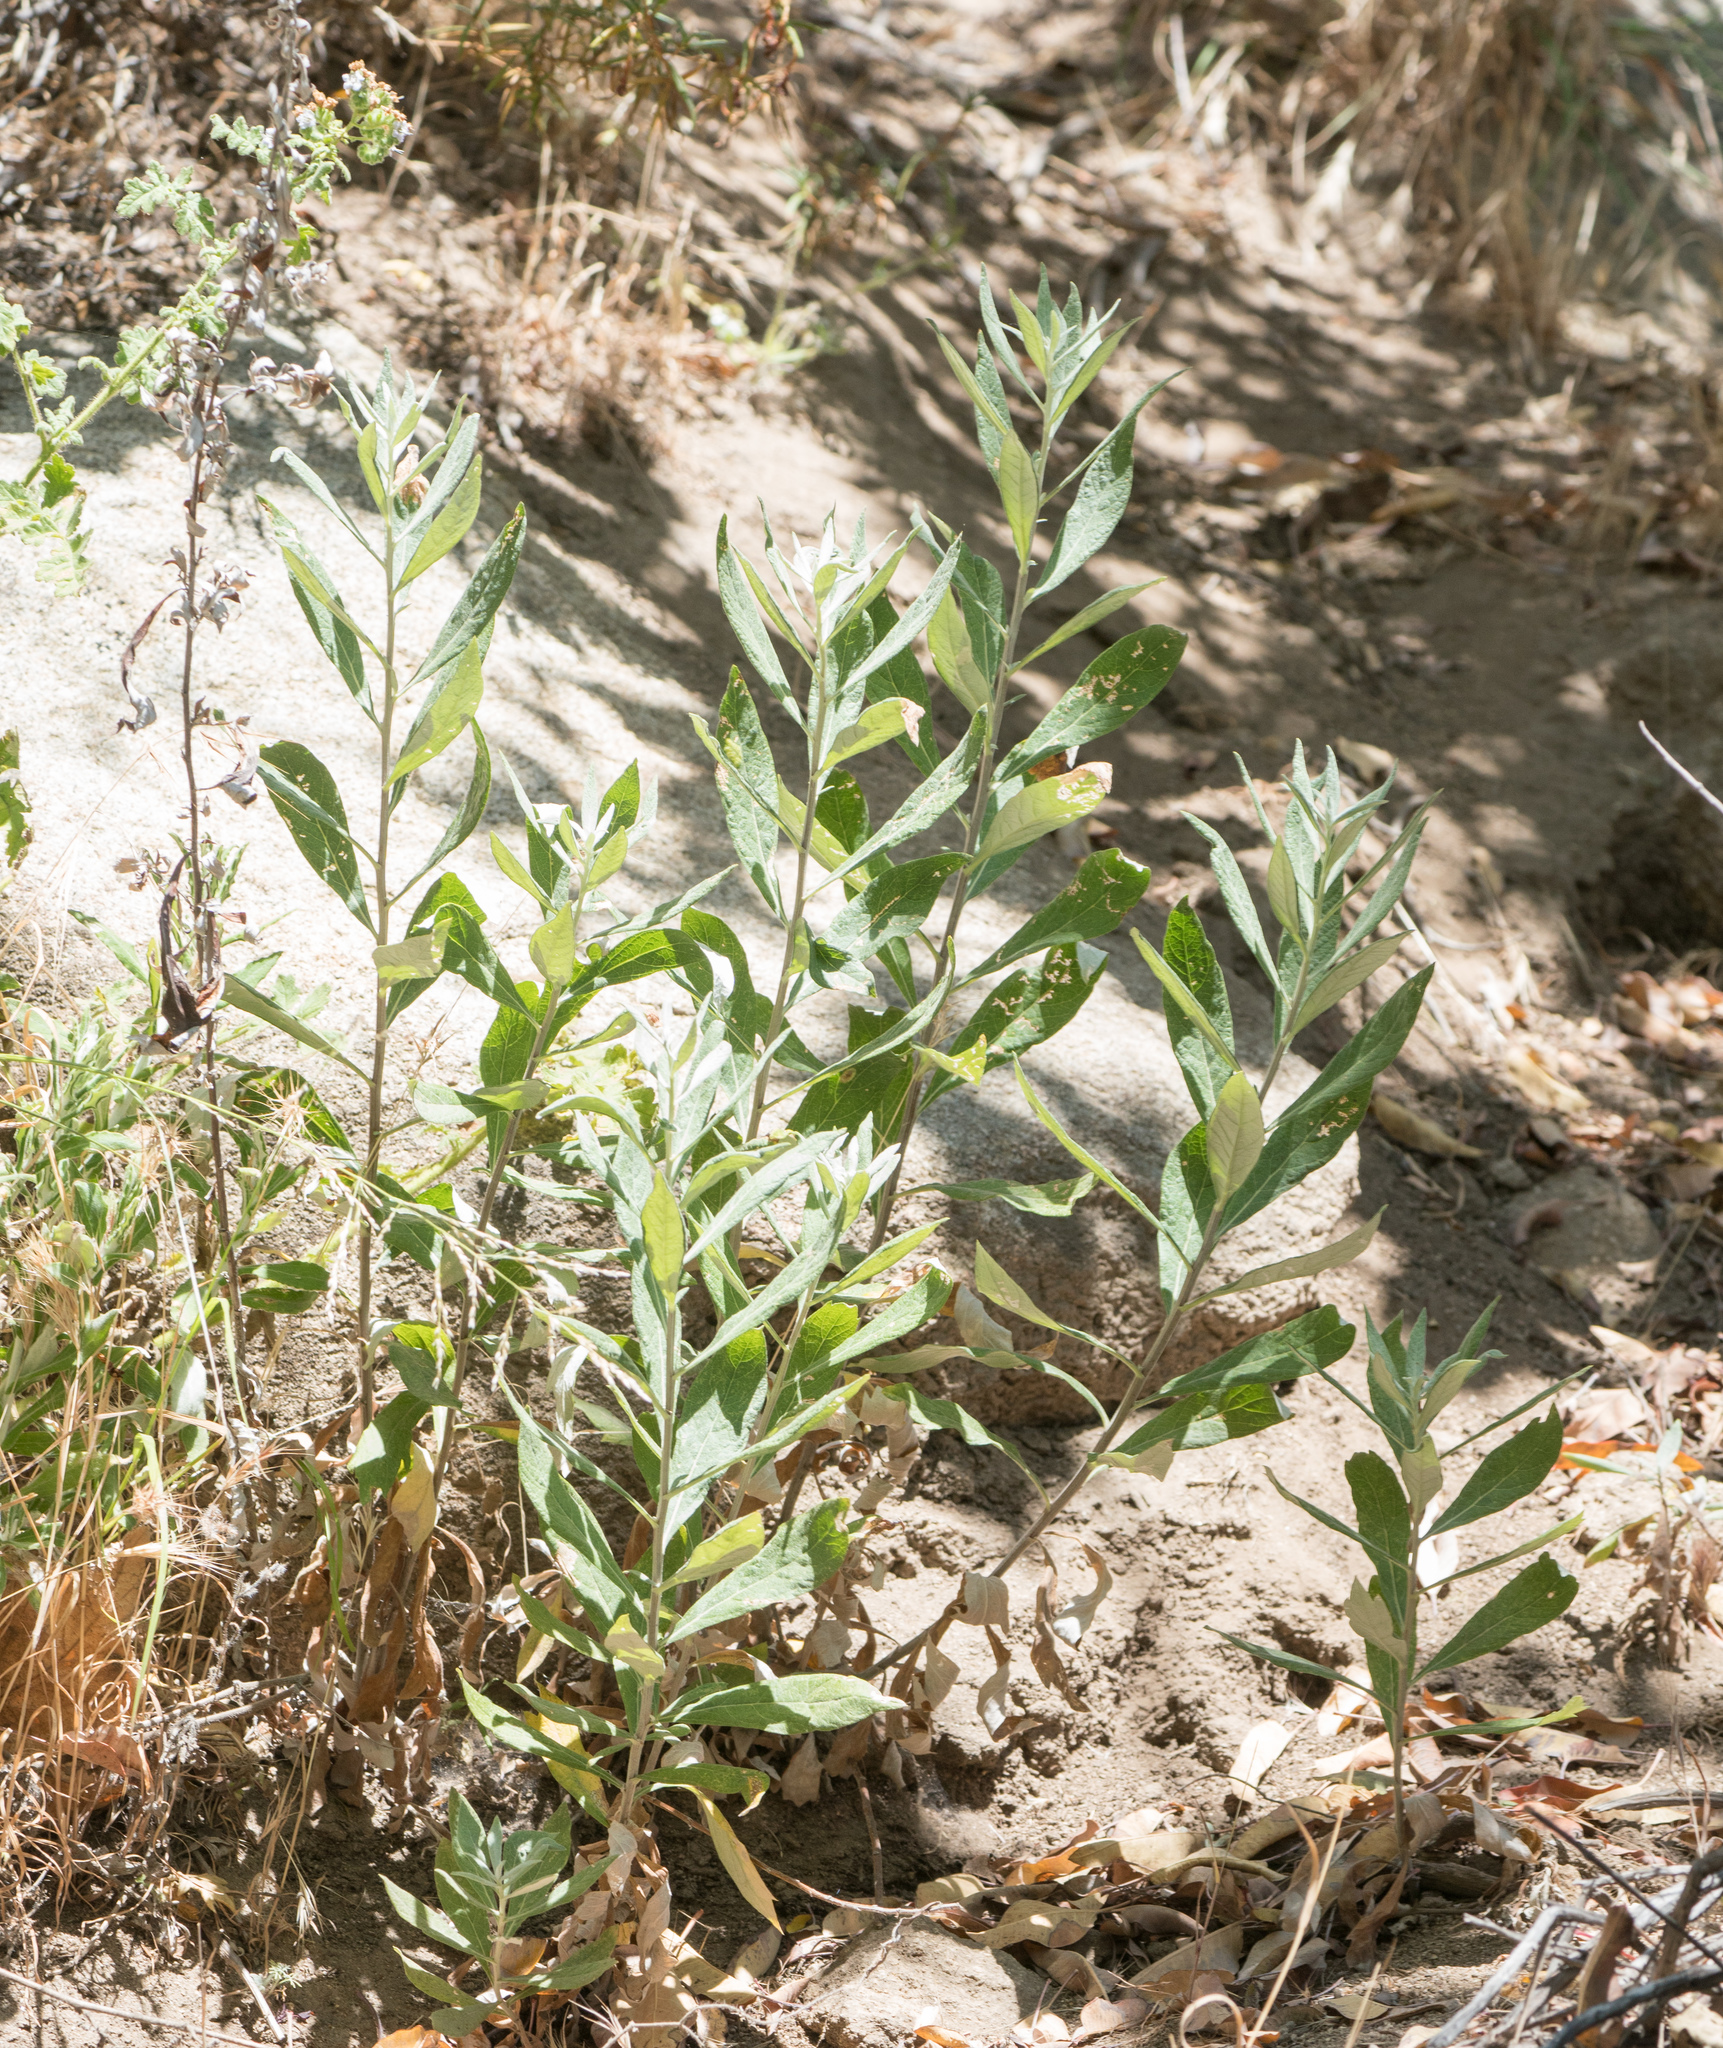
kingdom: Plantae
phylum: Tracheophyta
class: Magnoliopsida
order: Asterales
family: Asteraceae
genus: Artemisia
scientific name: Artemisia douglasiana
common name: Northwest mugwort
